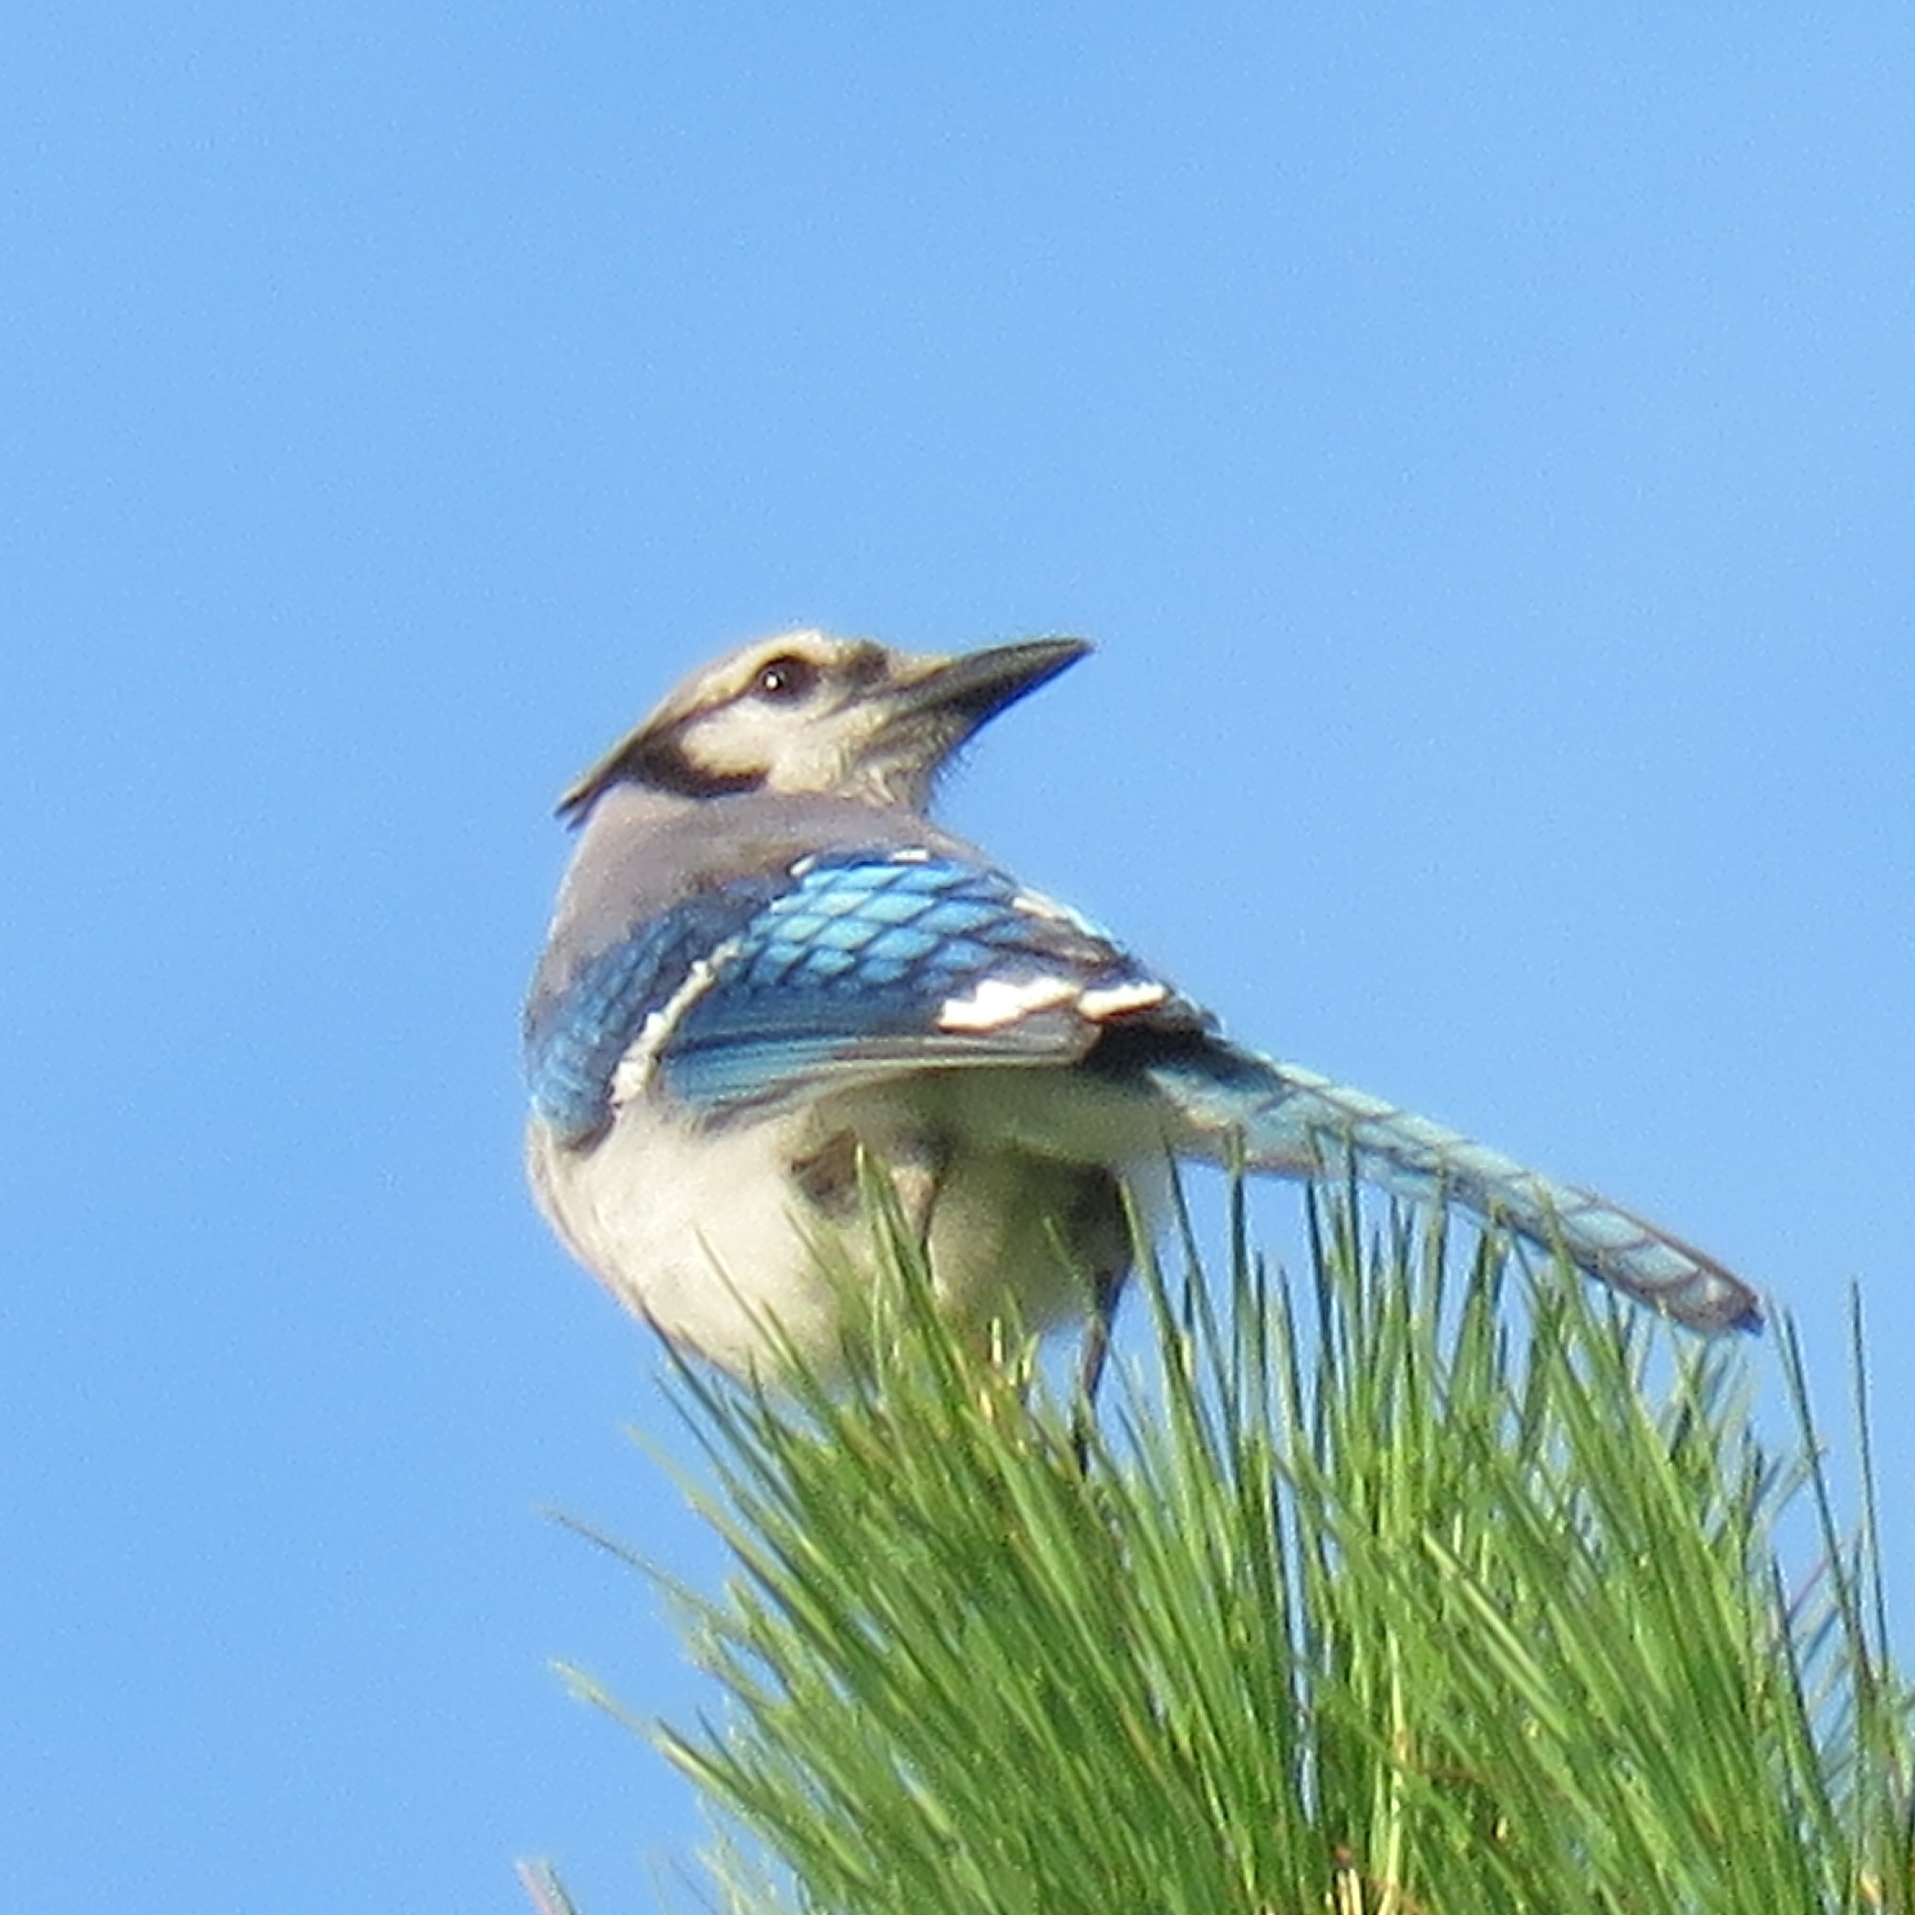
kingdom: Animalia
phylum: Chordata
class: Aves
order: Passeriformes
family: Corvidae
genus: Cyanocitta
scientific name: Cyanocitta cristata
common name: Blue jay
